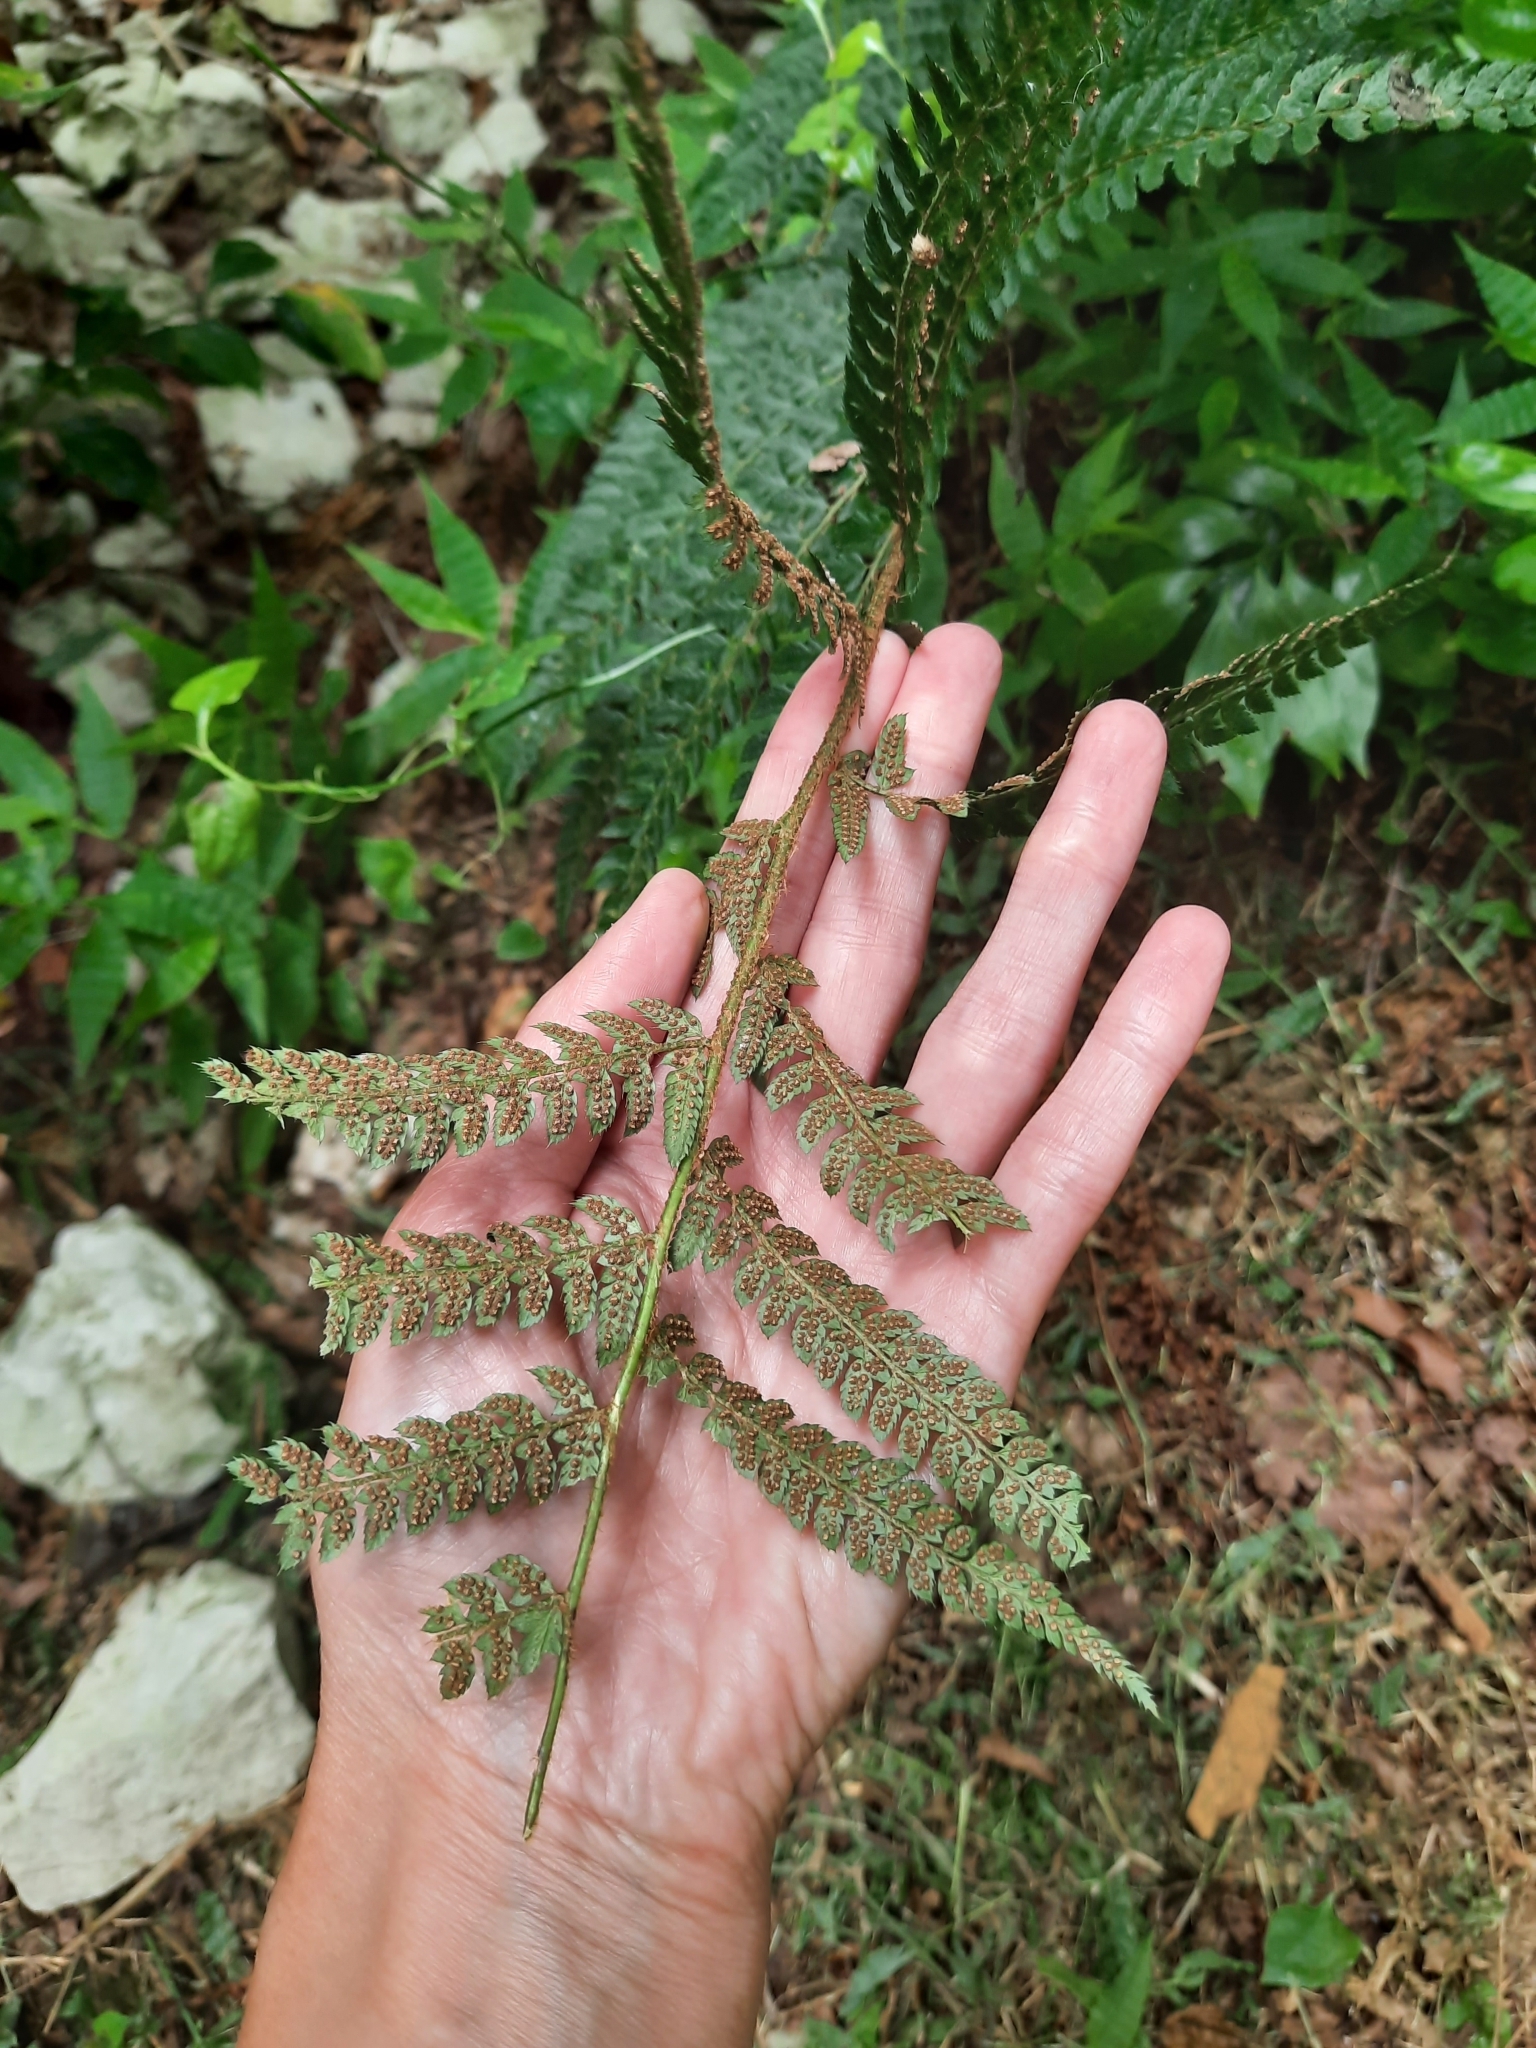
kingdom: Plantae
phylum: Tracheophyta
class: Polypodiopsida
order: Polypodiales
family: Dryopteridaceae
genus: Polystichum
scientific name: Polystichum setiferum
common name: Soft shield-fern
